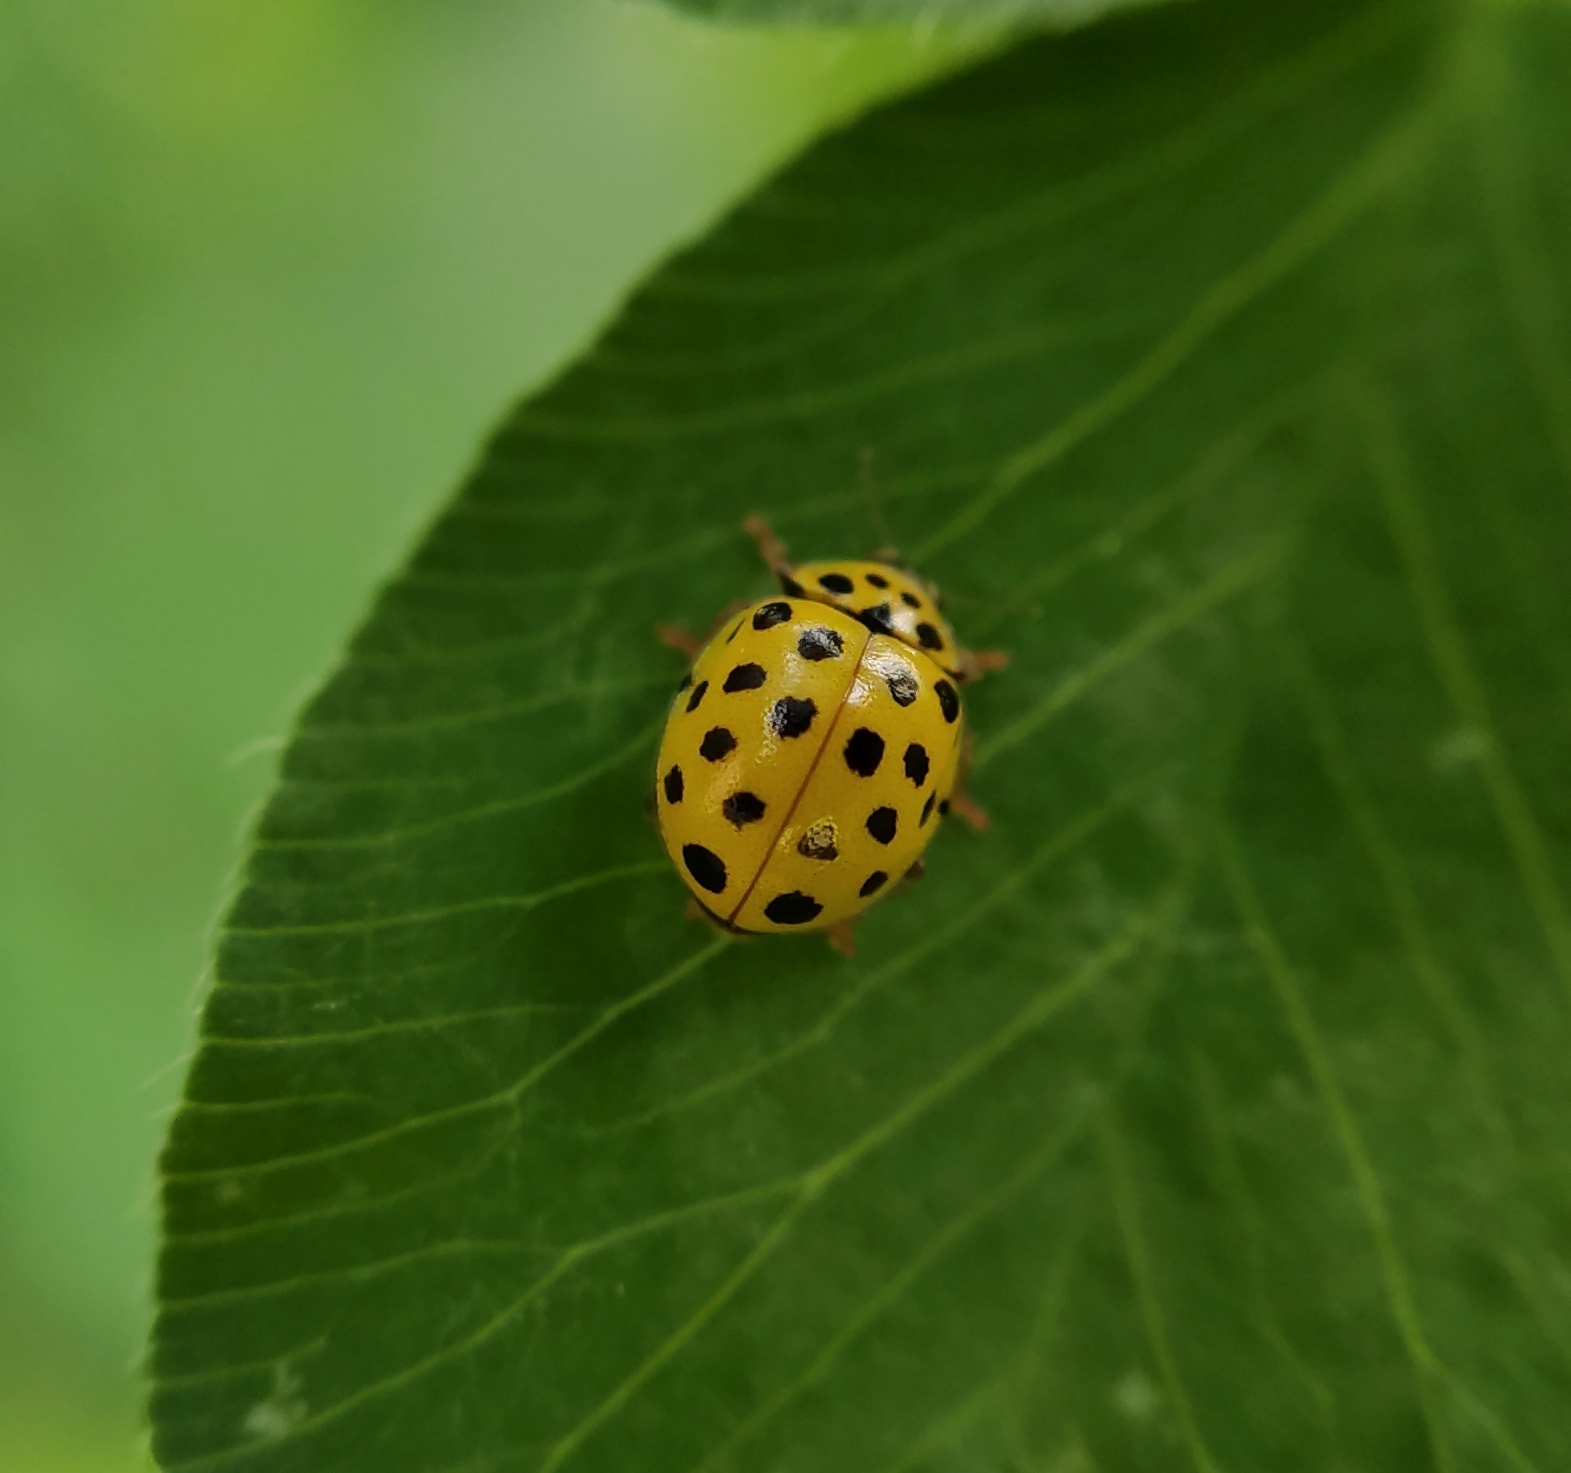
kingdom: Animalia
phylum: Arthropoda
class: Insecta
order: Coleoptera
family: Coccinellidae
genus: Psyllobora
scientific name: Psyllobora vigintiduopunctata
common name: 22-spot ladybird
